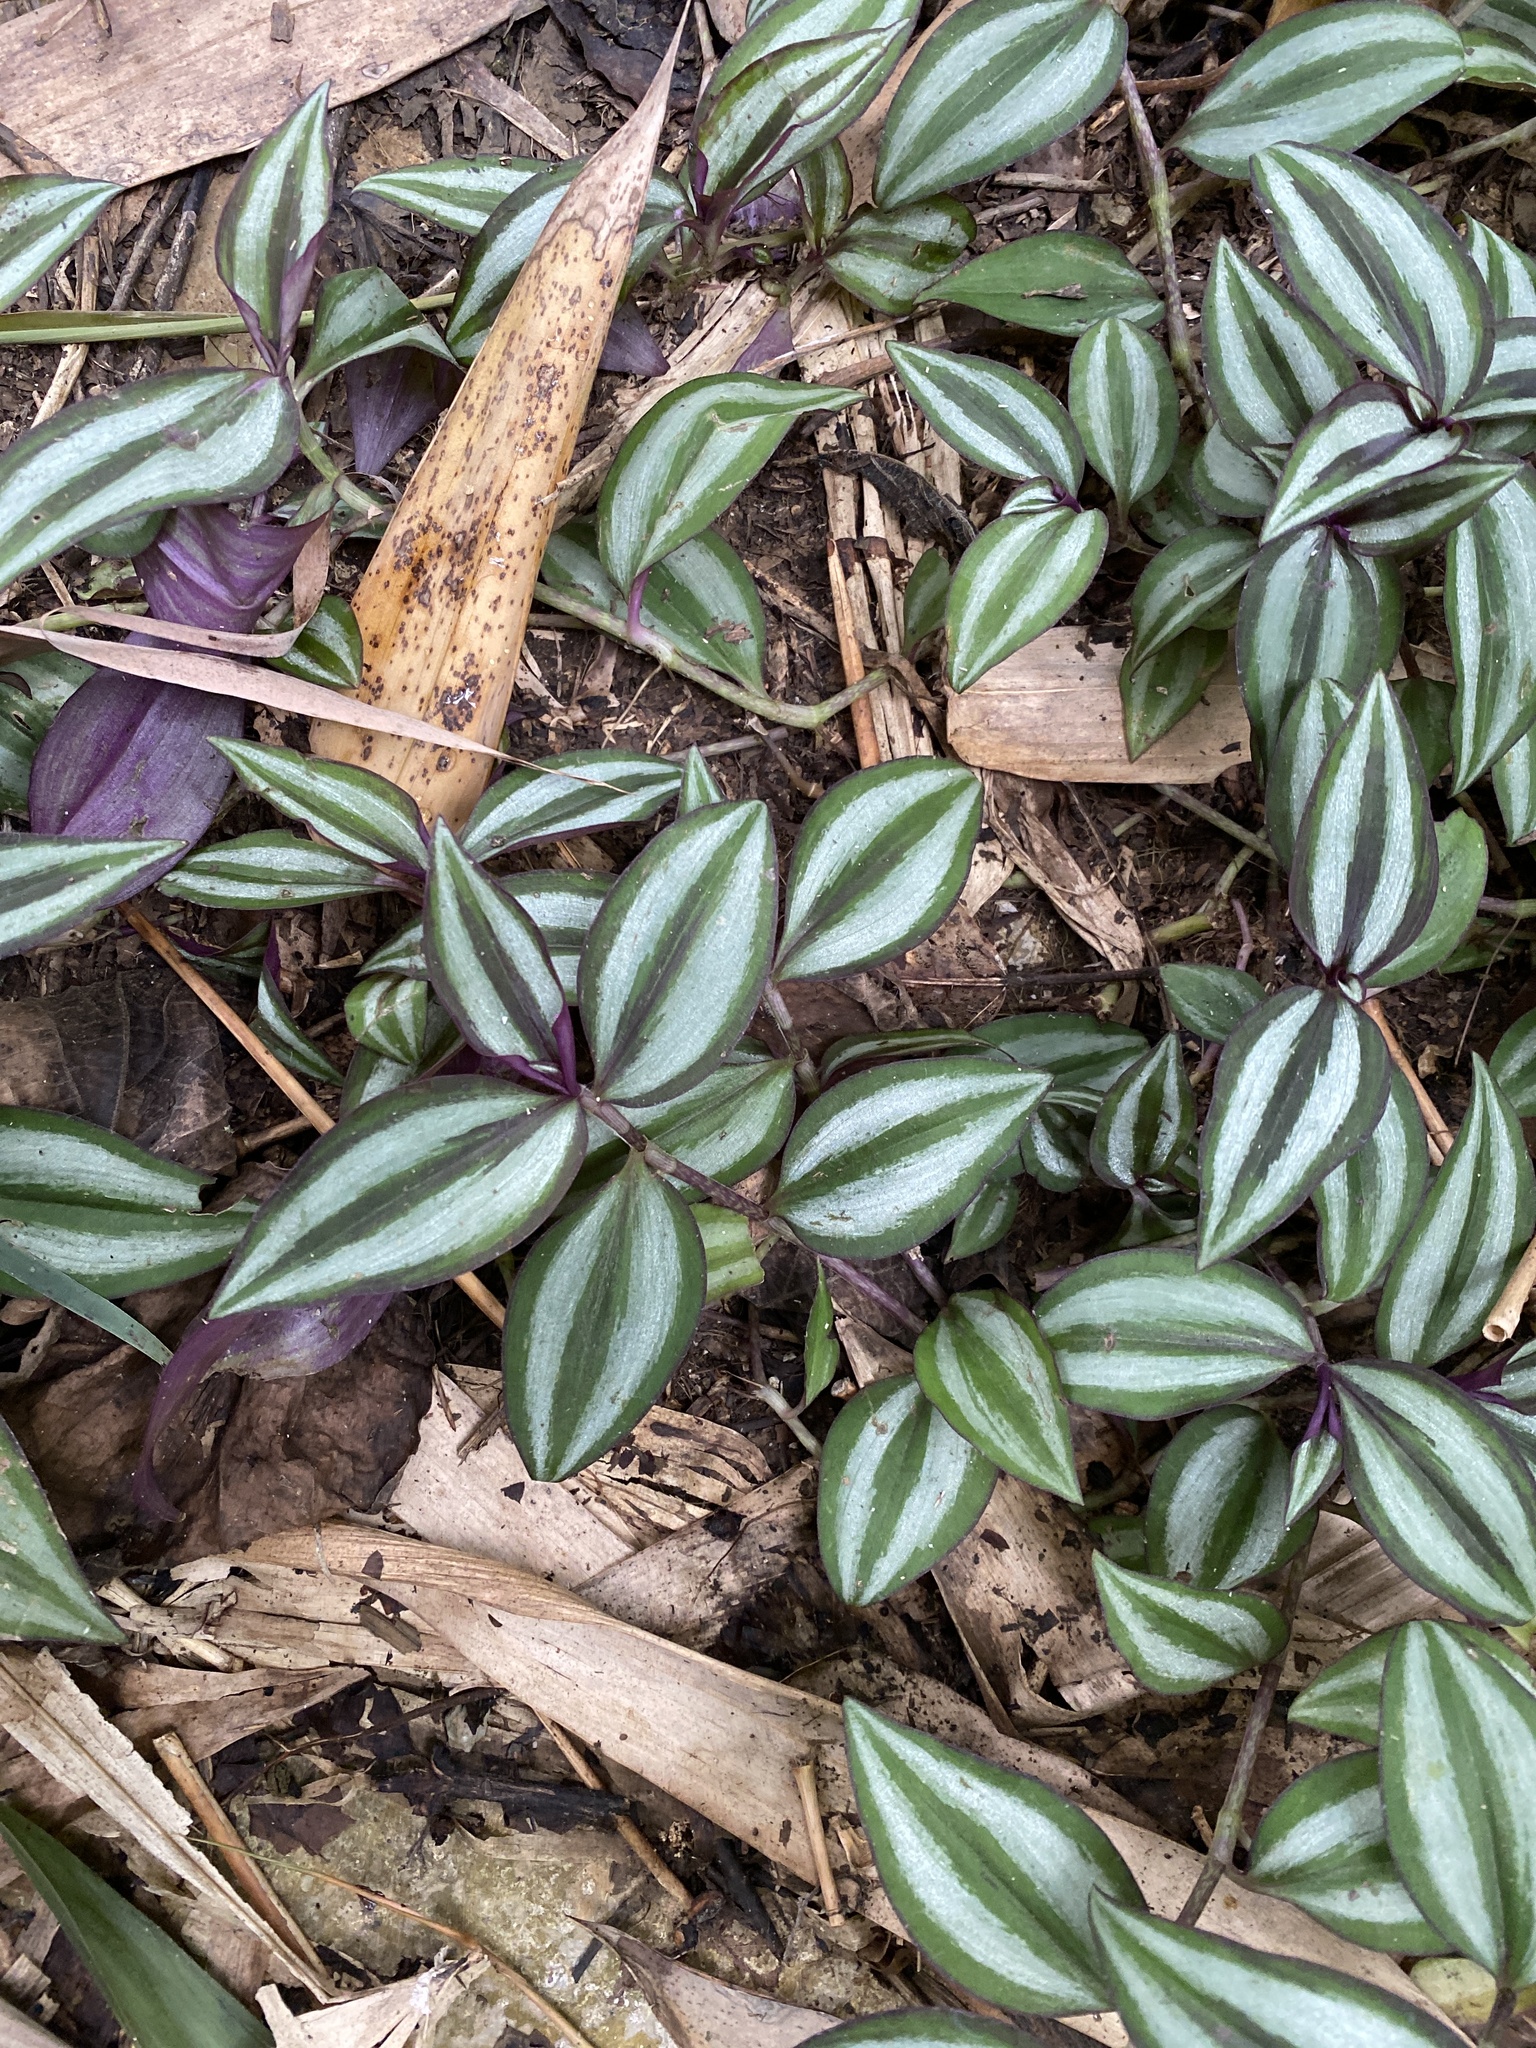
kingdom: Plantae
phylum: Tracheophyta
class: Liliopsida
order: Commelinales
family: Commelinaceae
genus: Tradescantia
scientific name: Tradescantia zebrina
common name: Inchplant
